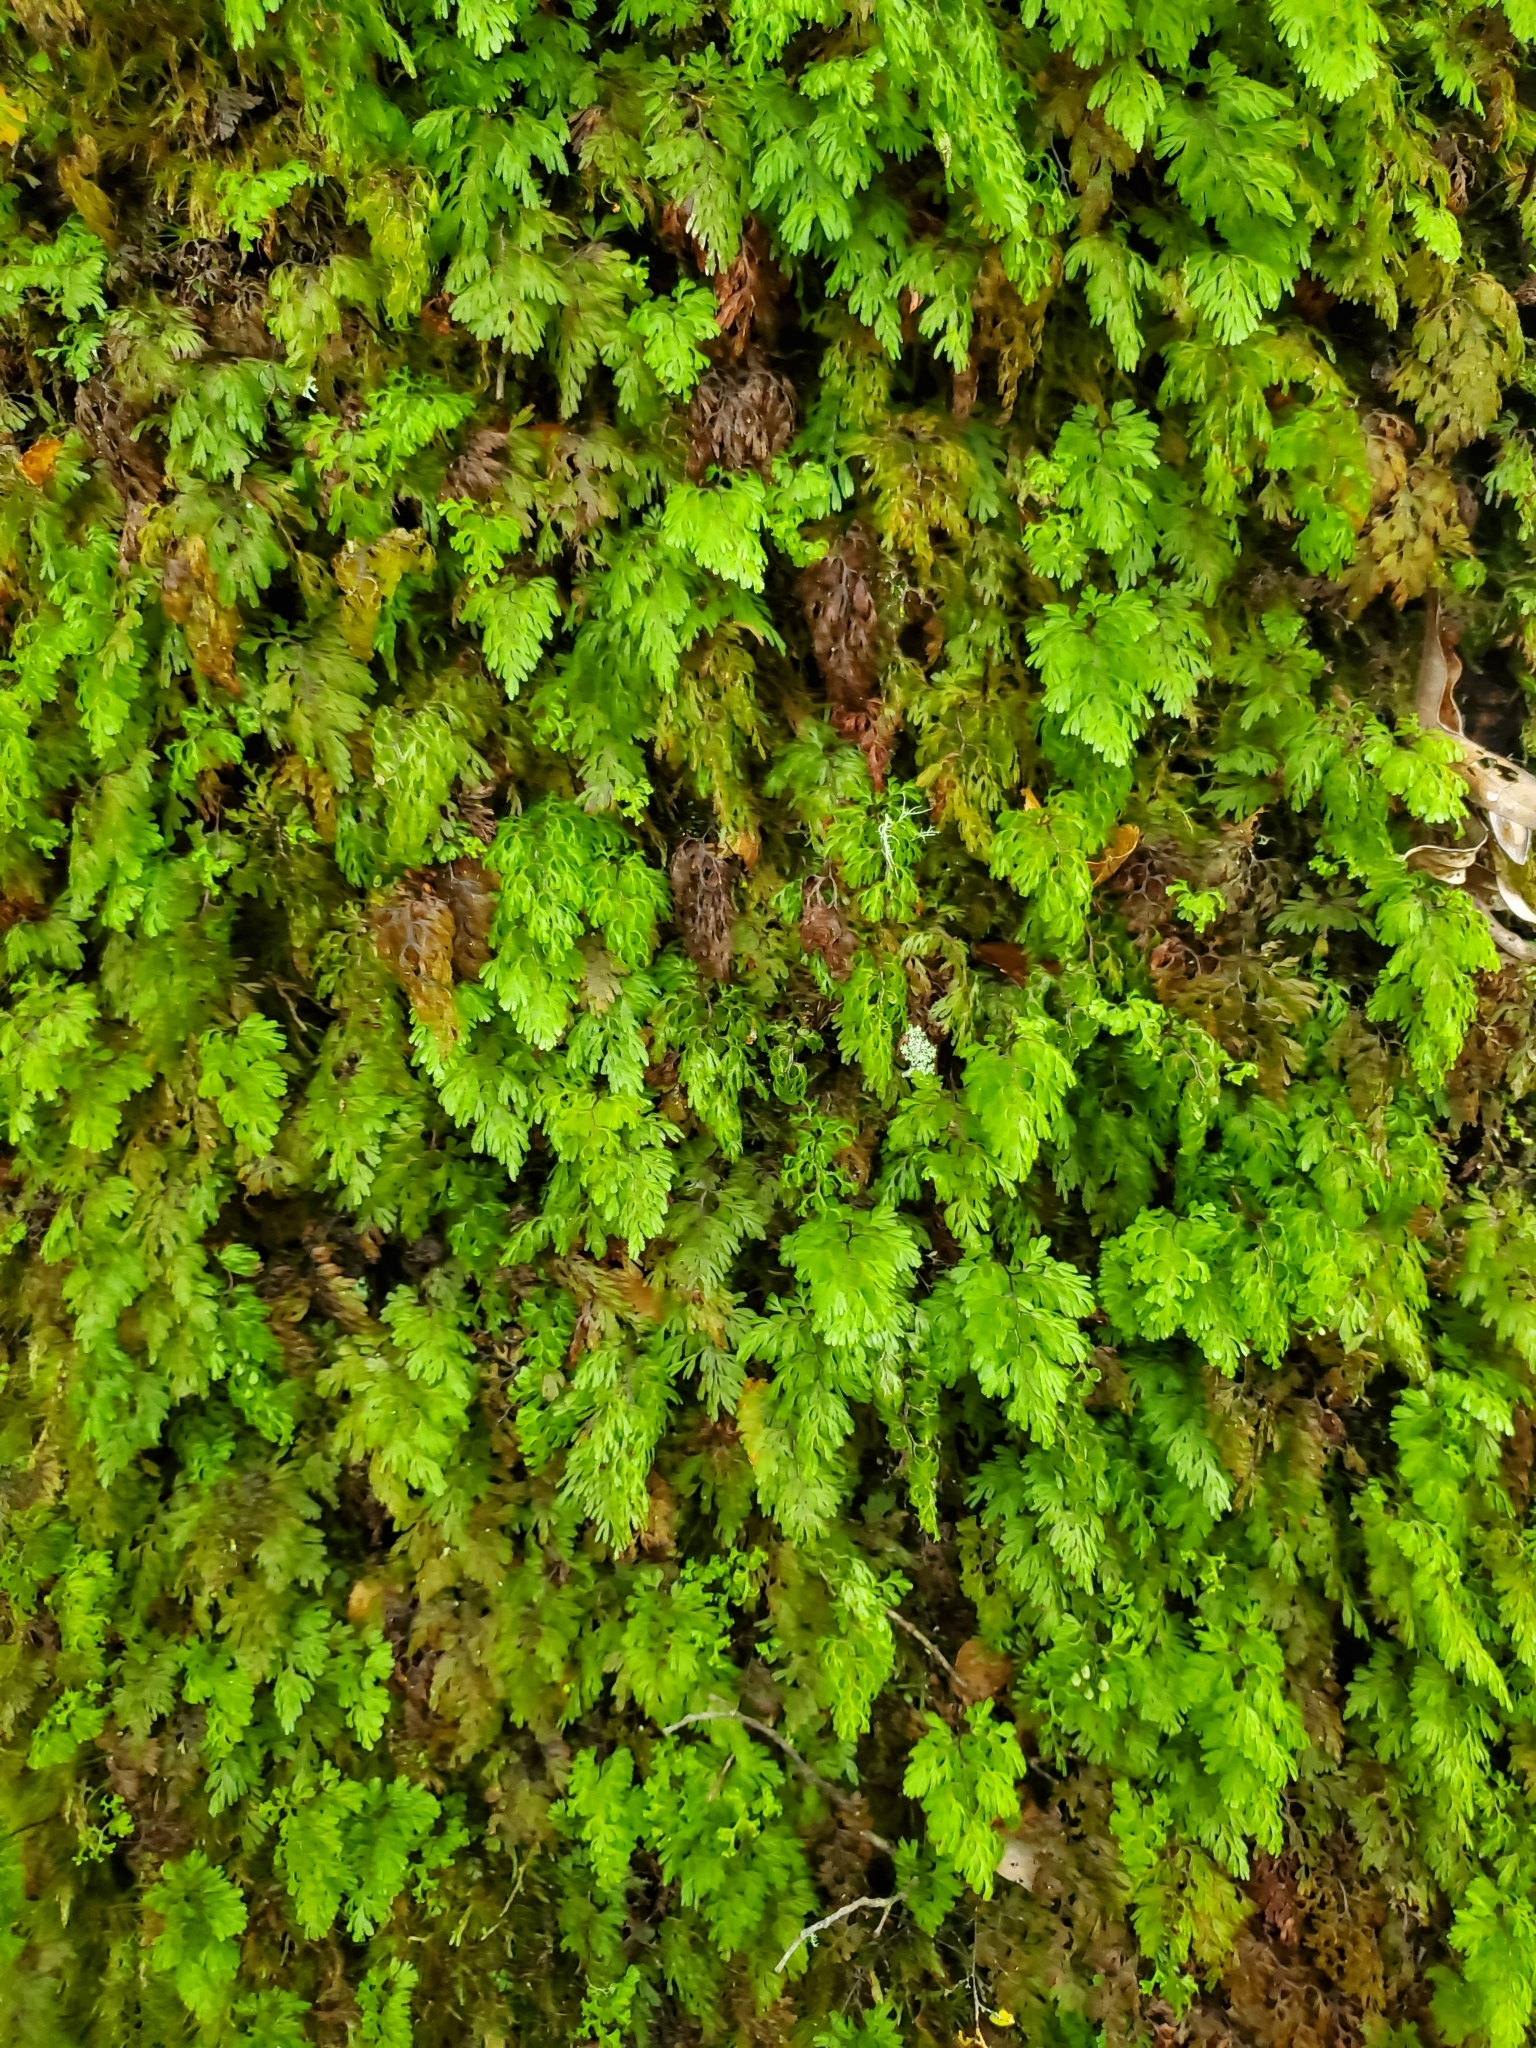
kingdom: Plantae
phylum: Tracheophyta
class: Polypodiopsida
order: Hymenophyllales
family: Hymenophyllaceae
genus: Hymenophyllum
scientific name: Hymenophyllum multifidum
